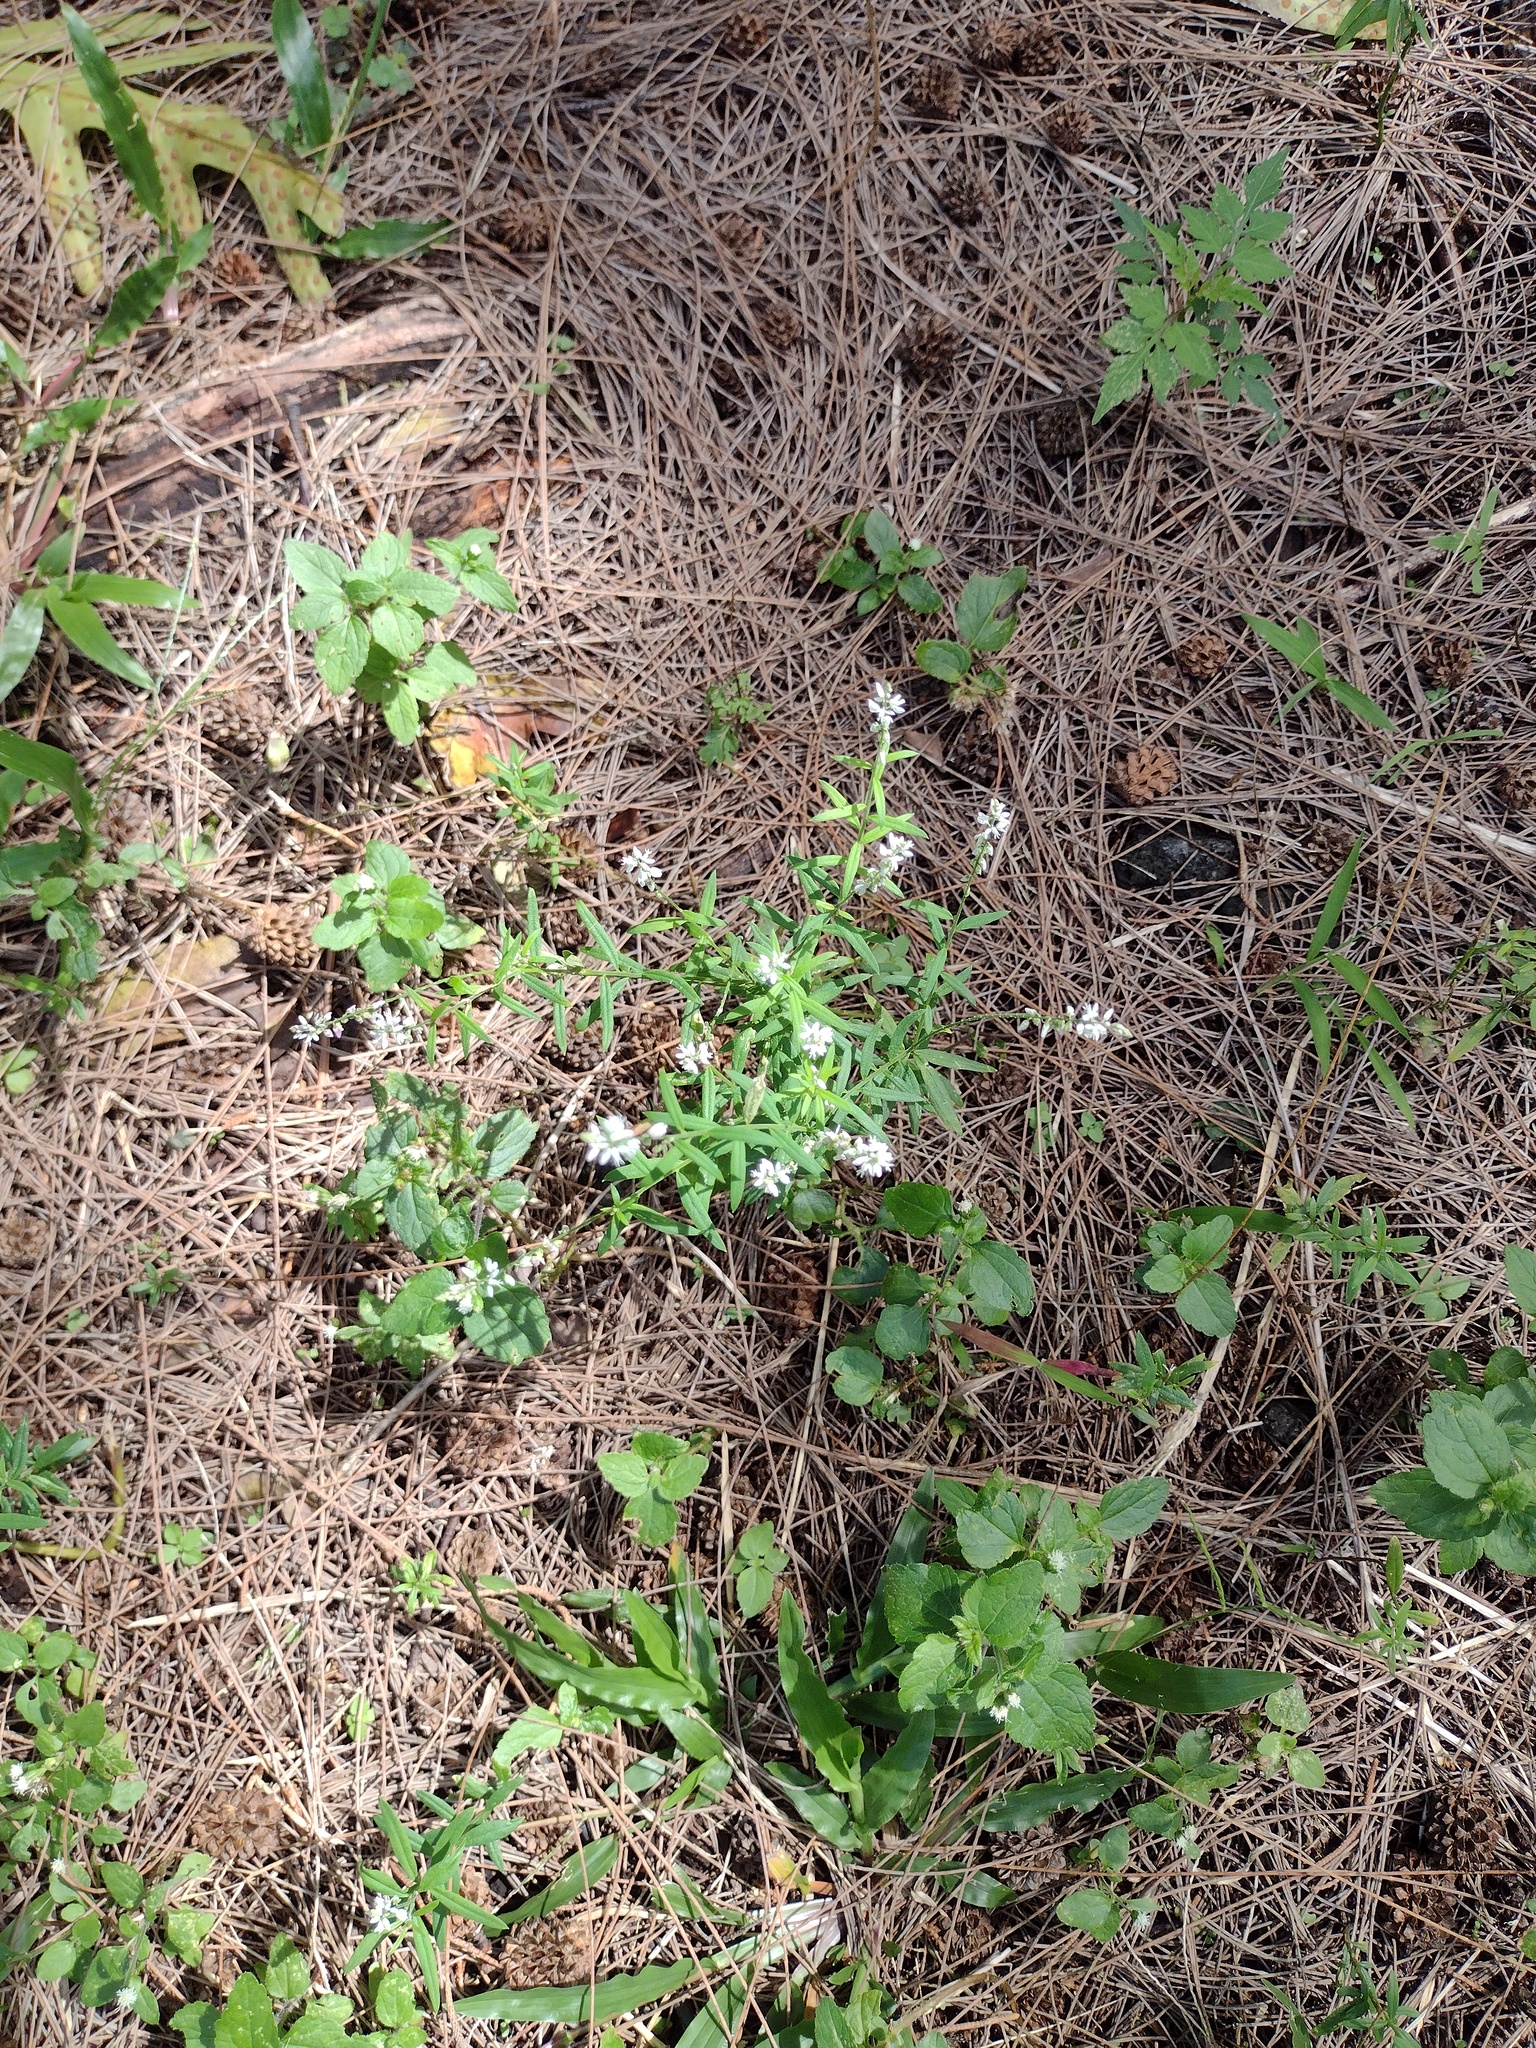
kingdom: Plantae
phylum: Tracheophyta
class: Magnoliopsida
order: Fabales
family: Polygalaceae
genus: Polygala
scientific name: Polygala paniculata
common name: Orosne
